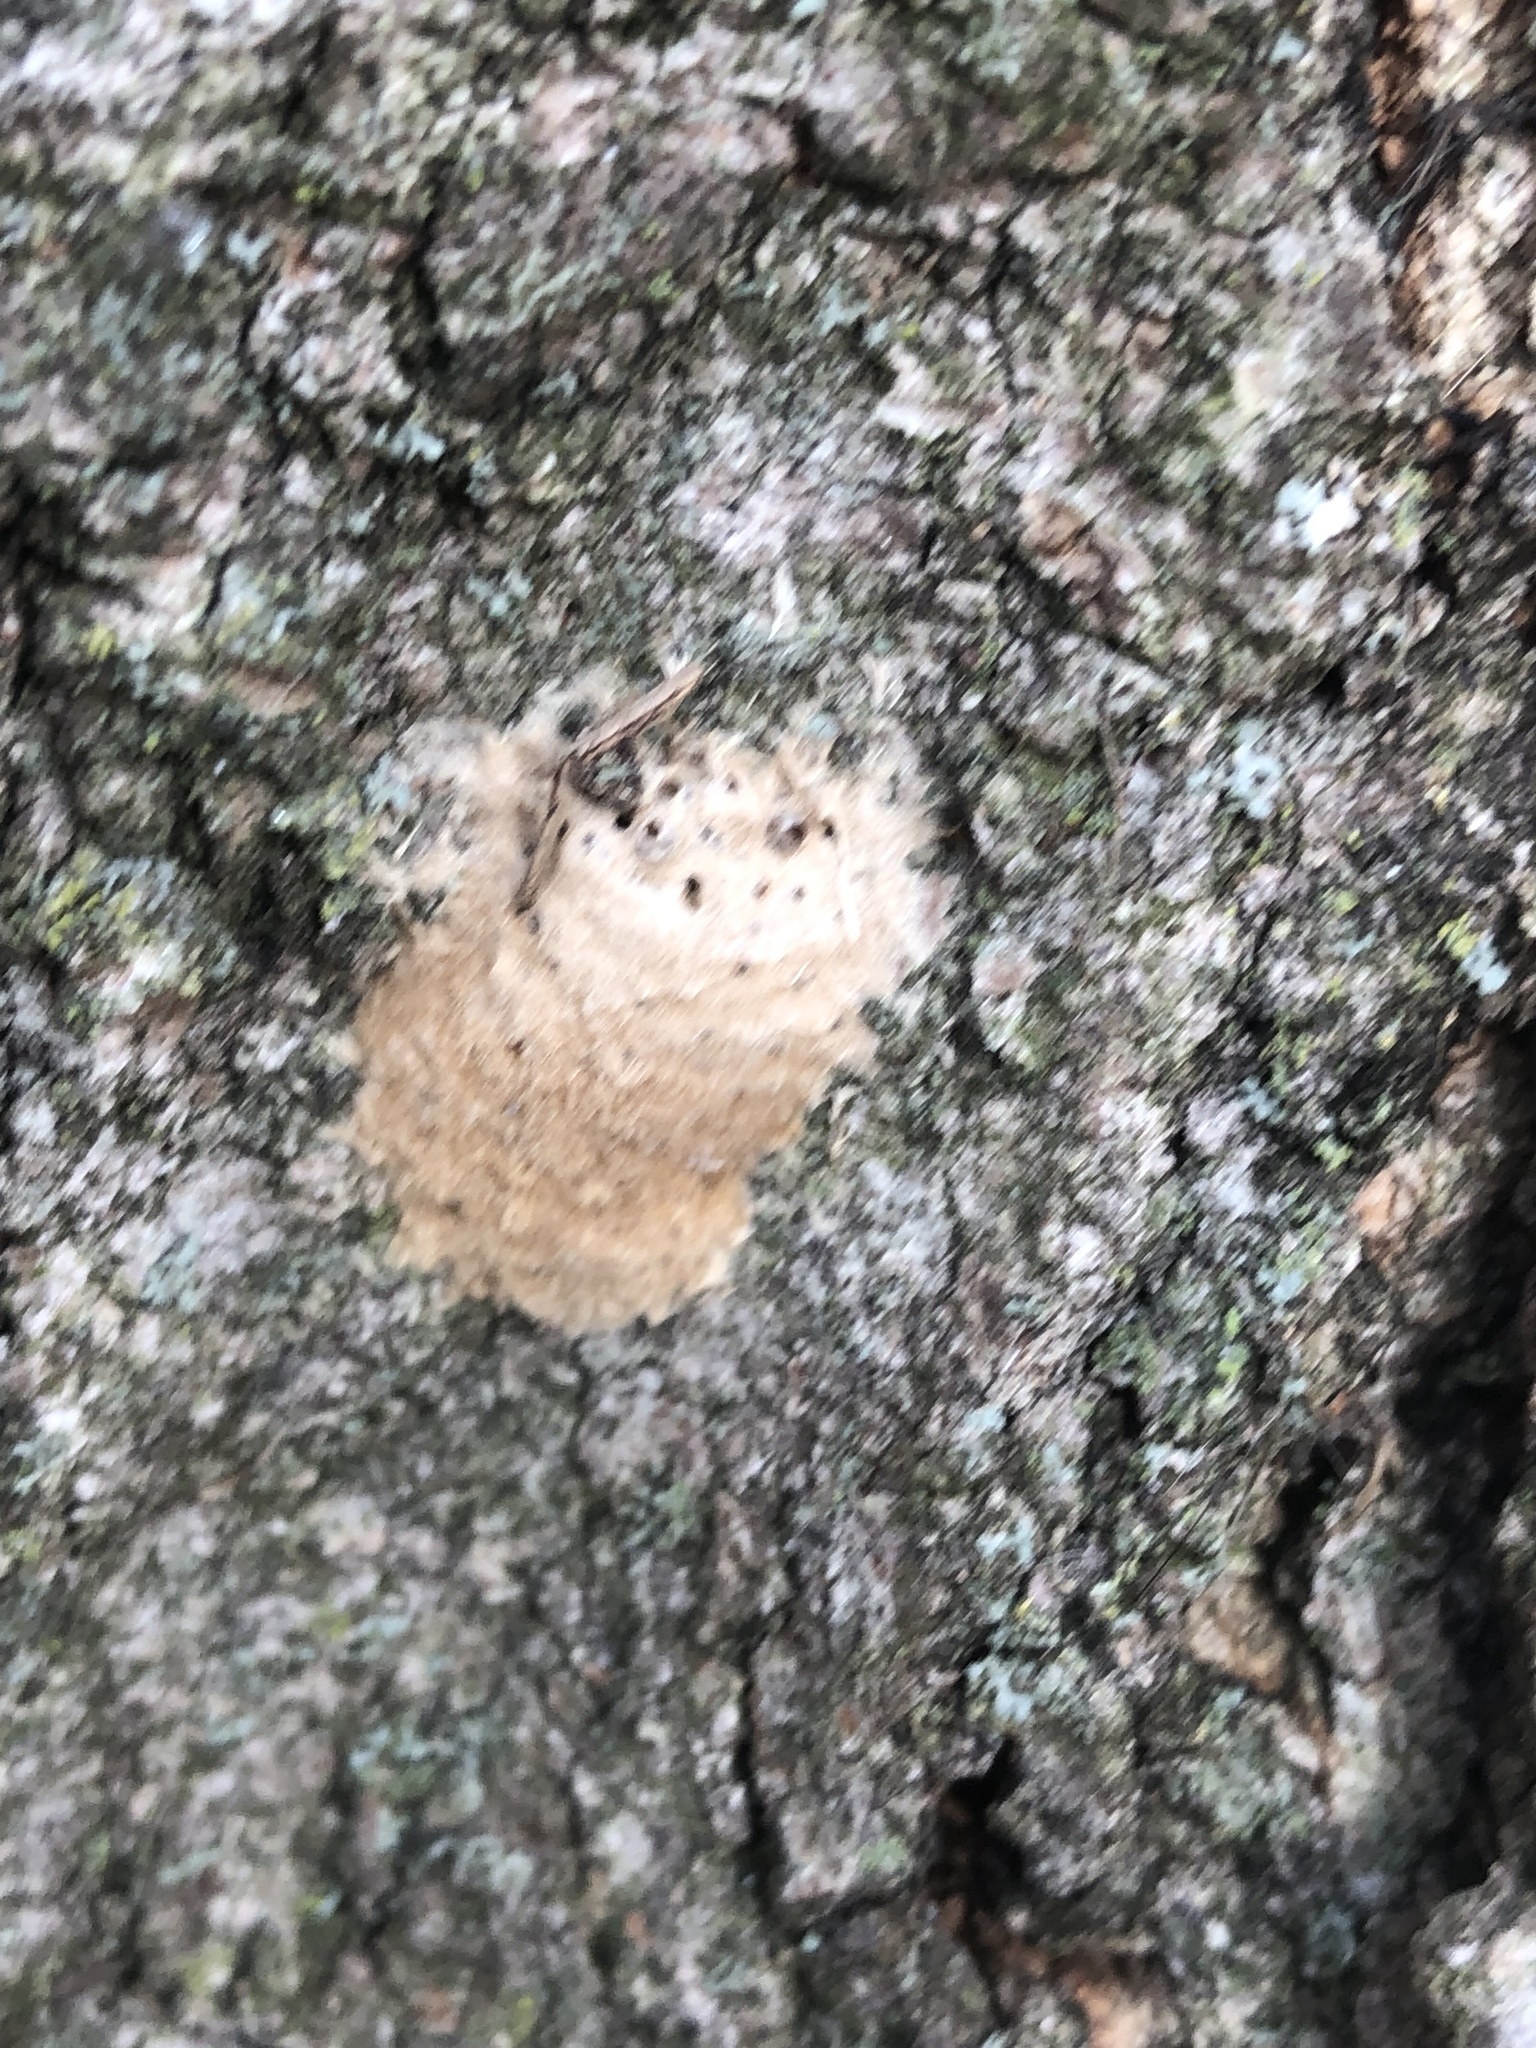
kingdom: Animalia
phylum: Arthropoda
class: Insecta
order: Lepidoptera
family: Erebidae
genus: Lymantria
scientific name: Lymantria dispar
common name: Gypsy moth
